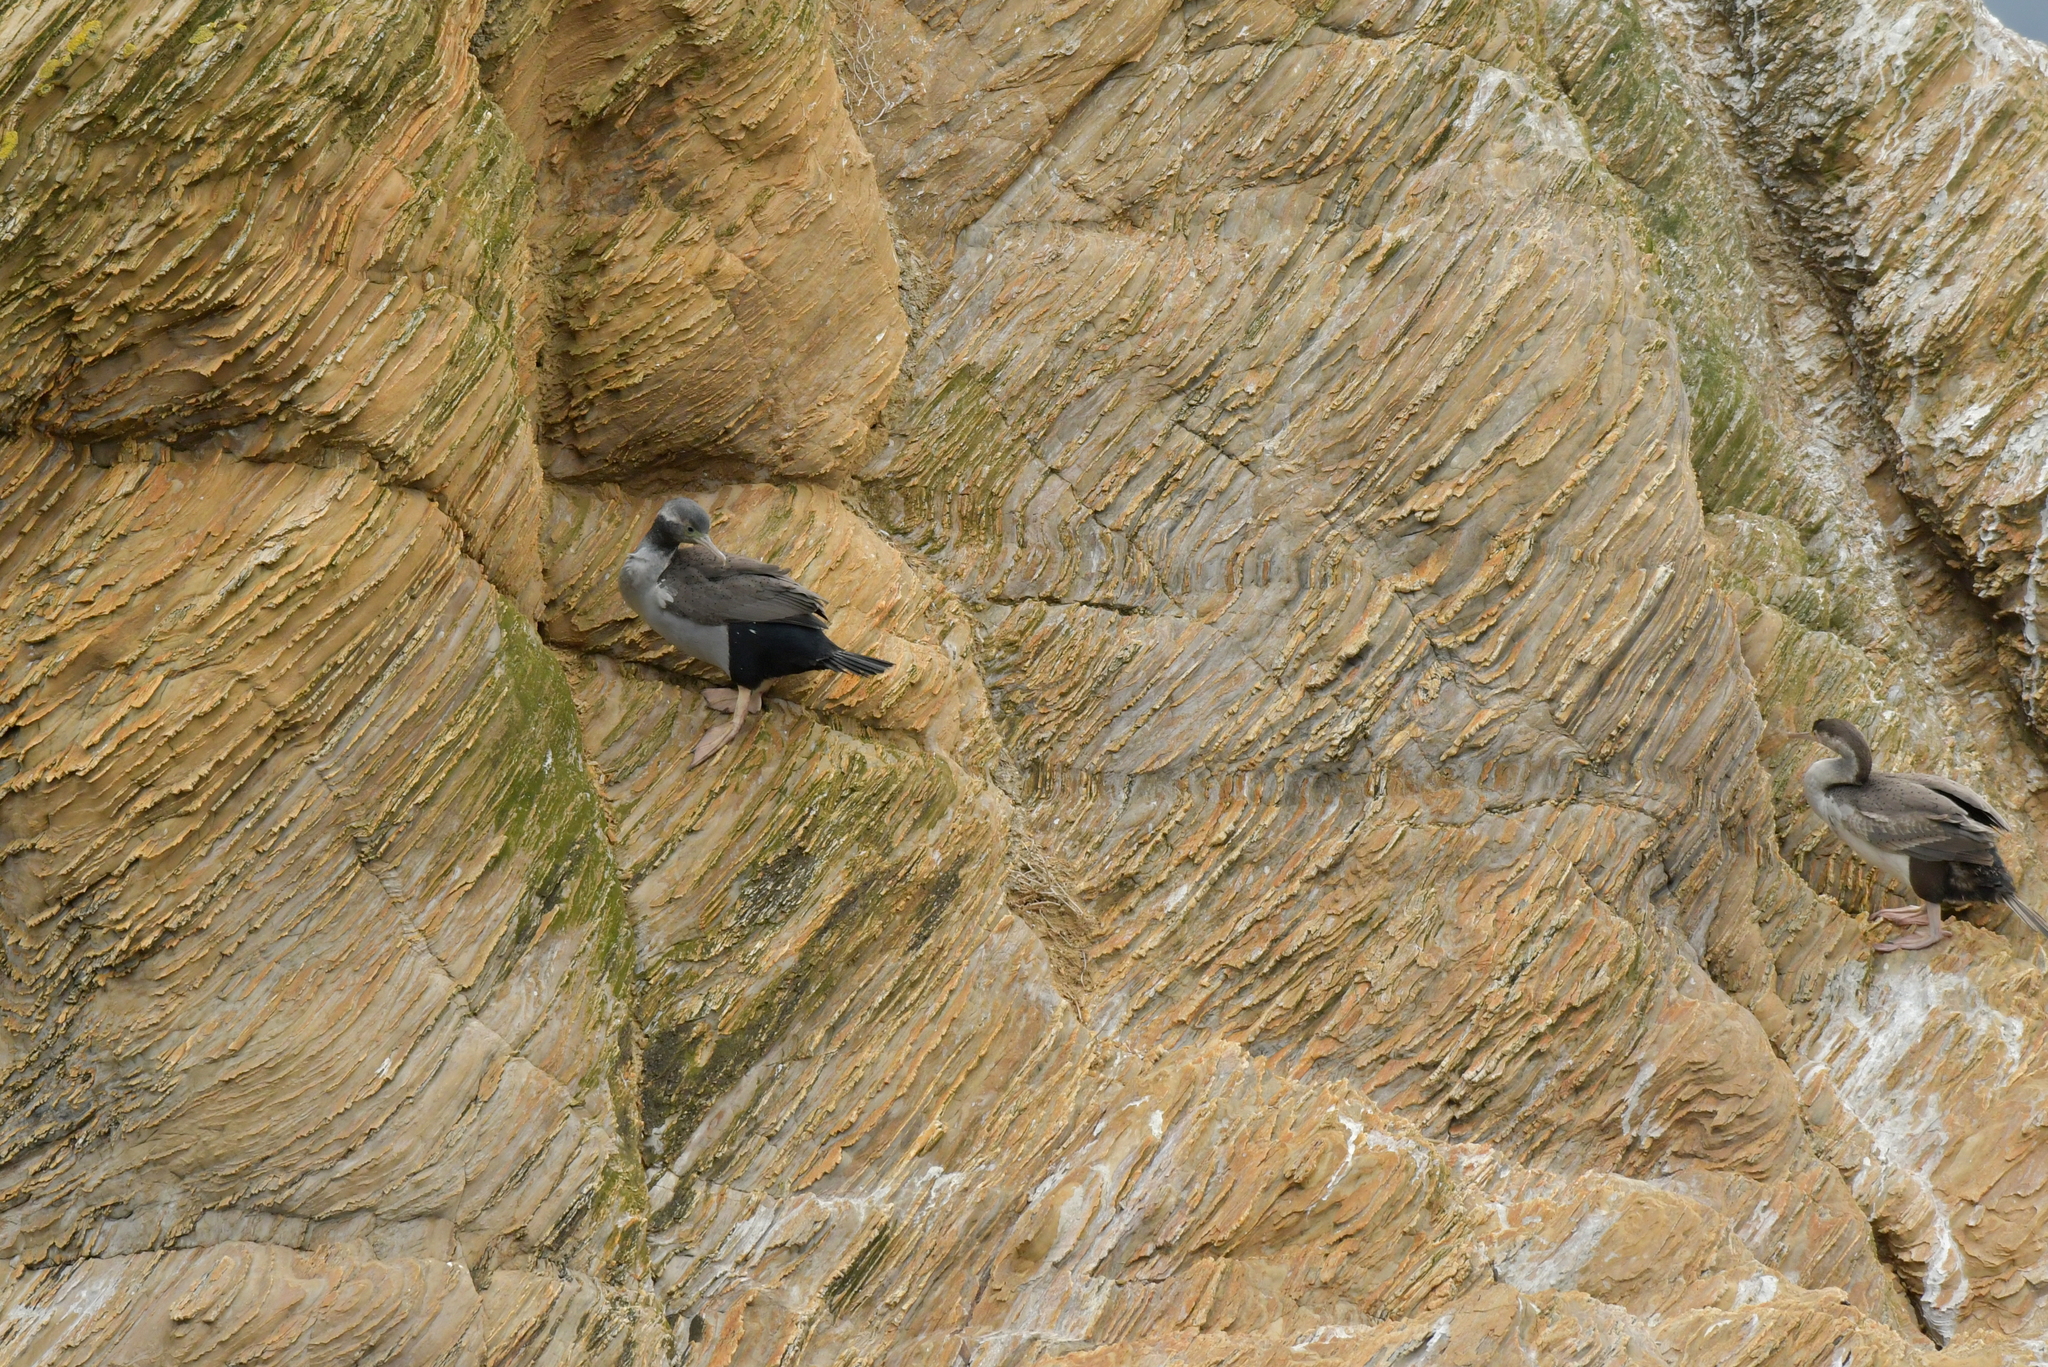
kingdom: Animalia
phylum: Chordata
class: Aves
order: Suliformes
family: Phalacrocoracidae
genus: Phalacrocorax
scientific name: Phalacrocorax punctatus
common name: Spotted shag
